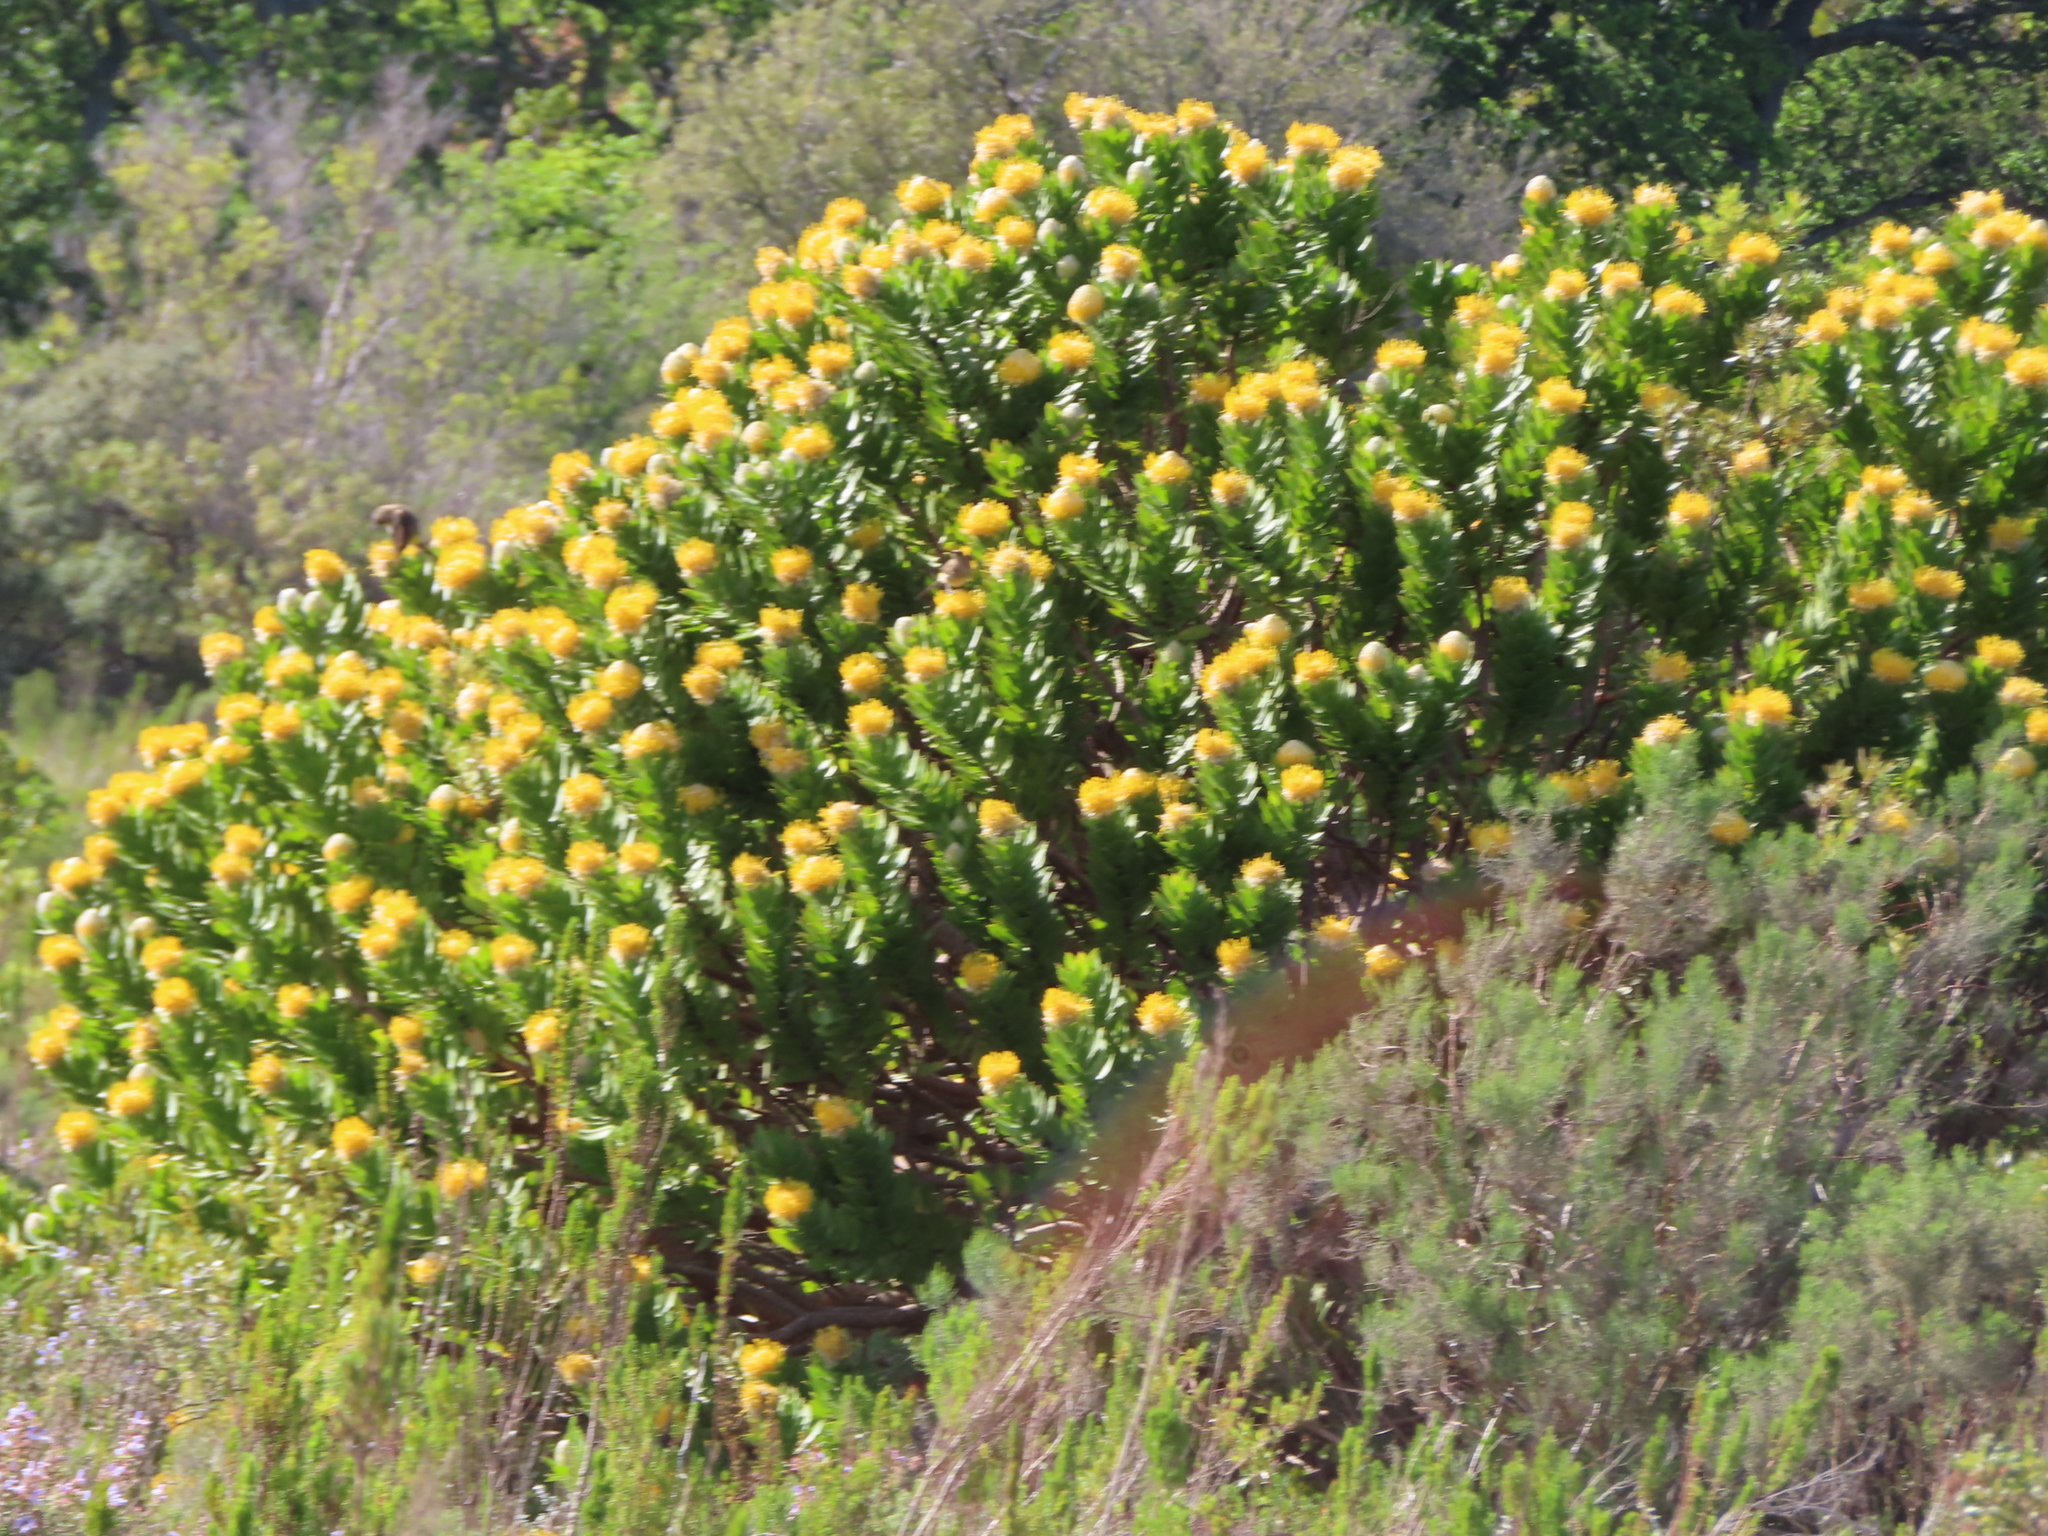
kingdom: Plantae
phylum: Tracheophyta
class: Magnoliopsida
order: Proteales
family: Proteaceae
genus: Leucospermum
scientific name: Leucospermum conocarpodendron
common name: Tree pincushion
